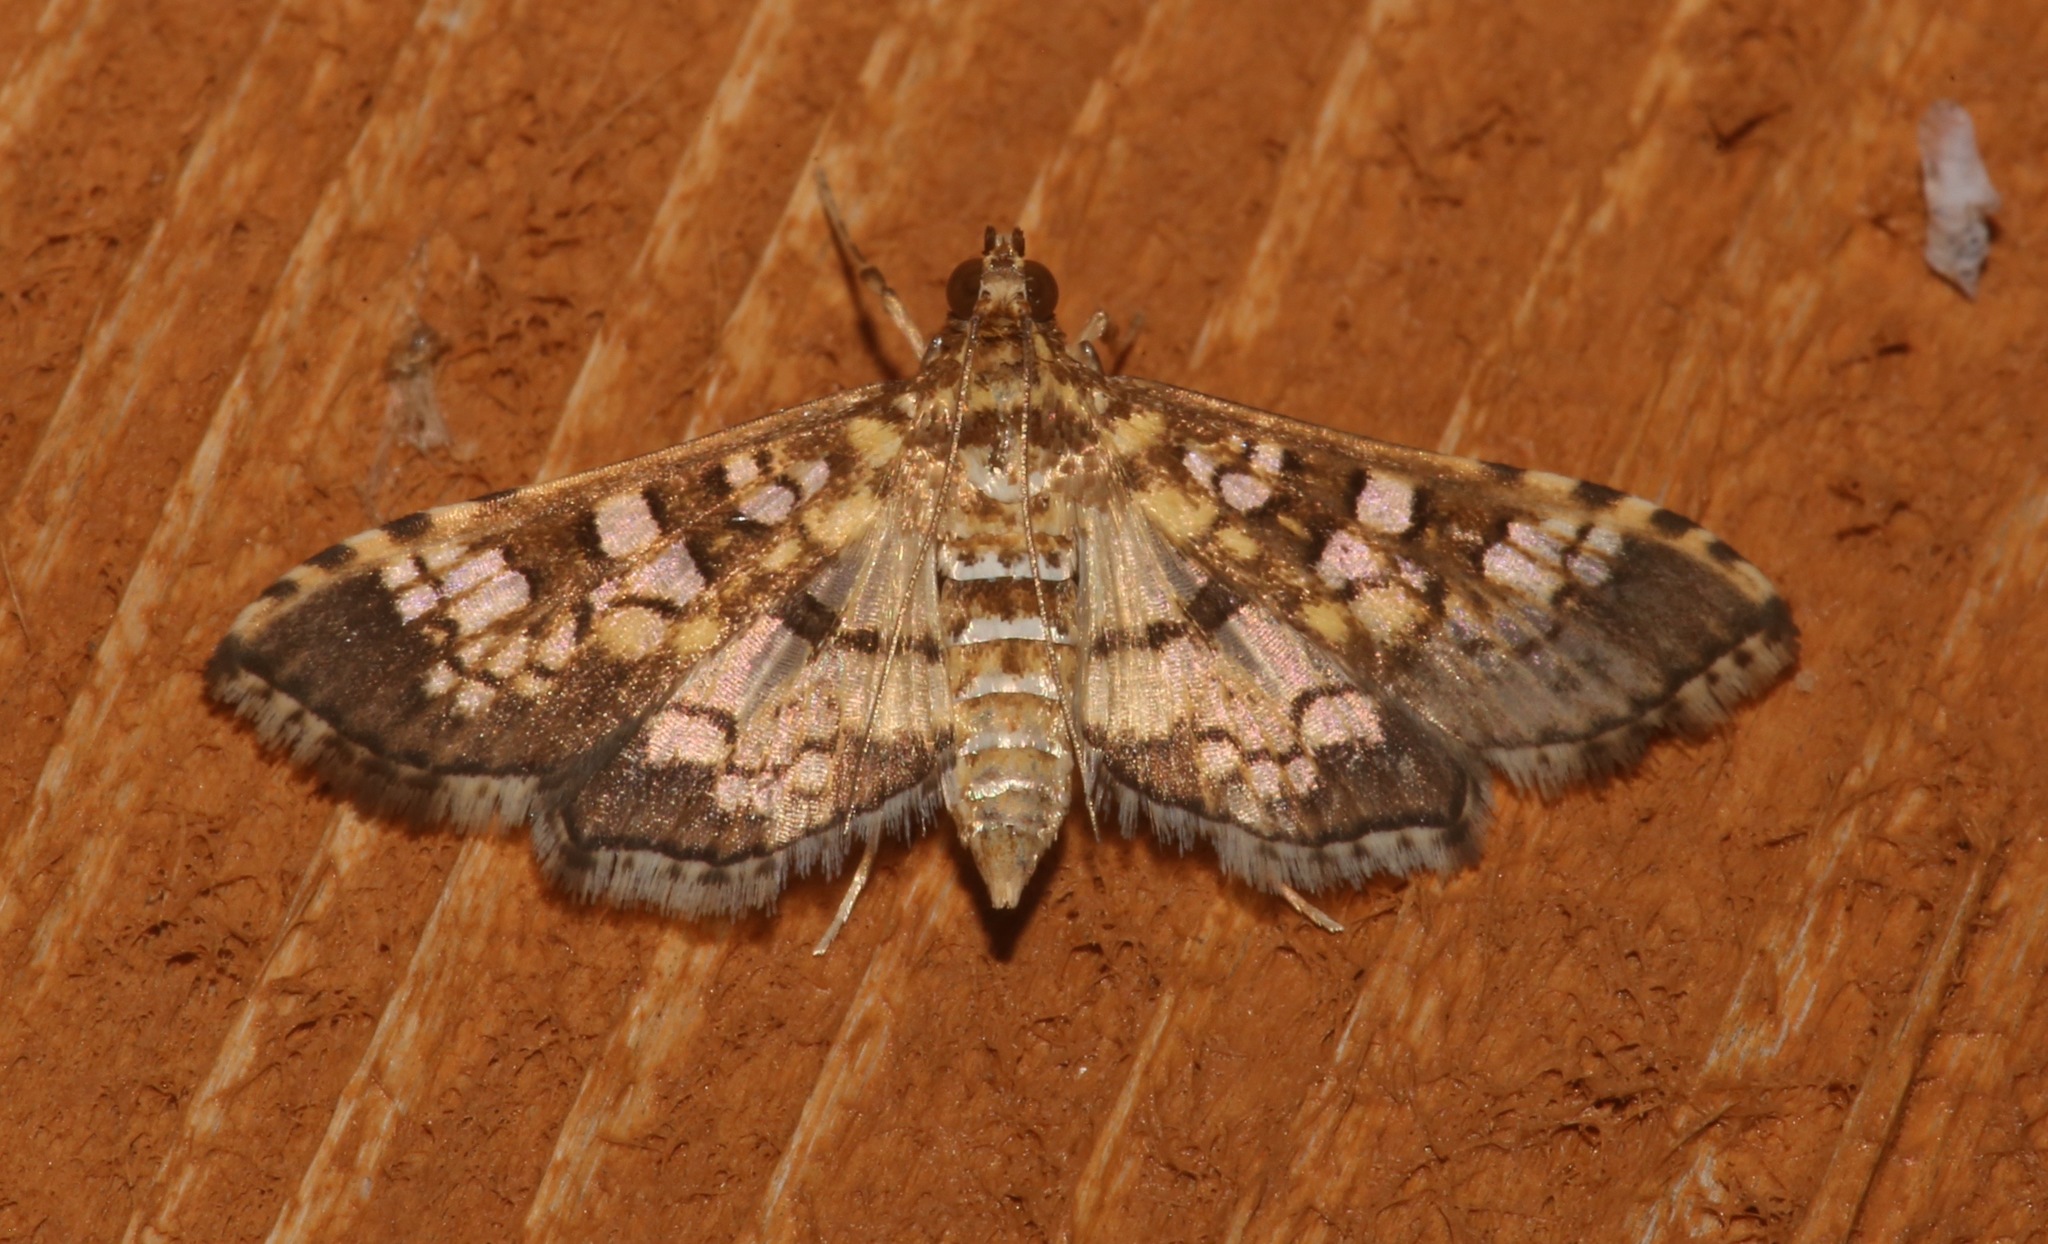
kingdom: Animalia
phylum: Arthropoda
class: Insecta
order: Lepidoptera
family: Crambidae
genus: Samea
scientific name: Samea ecclesialis
